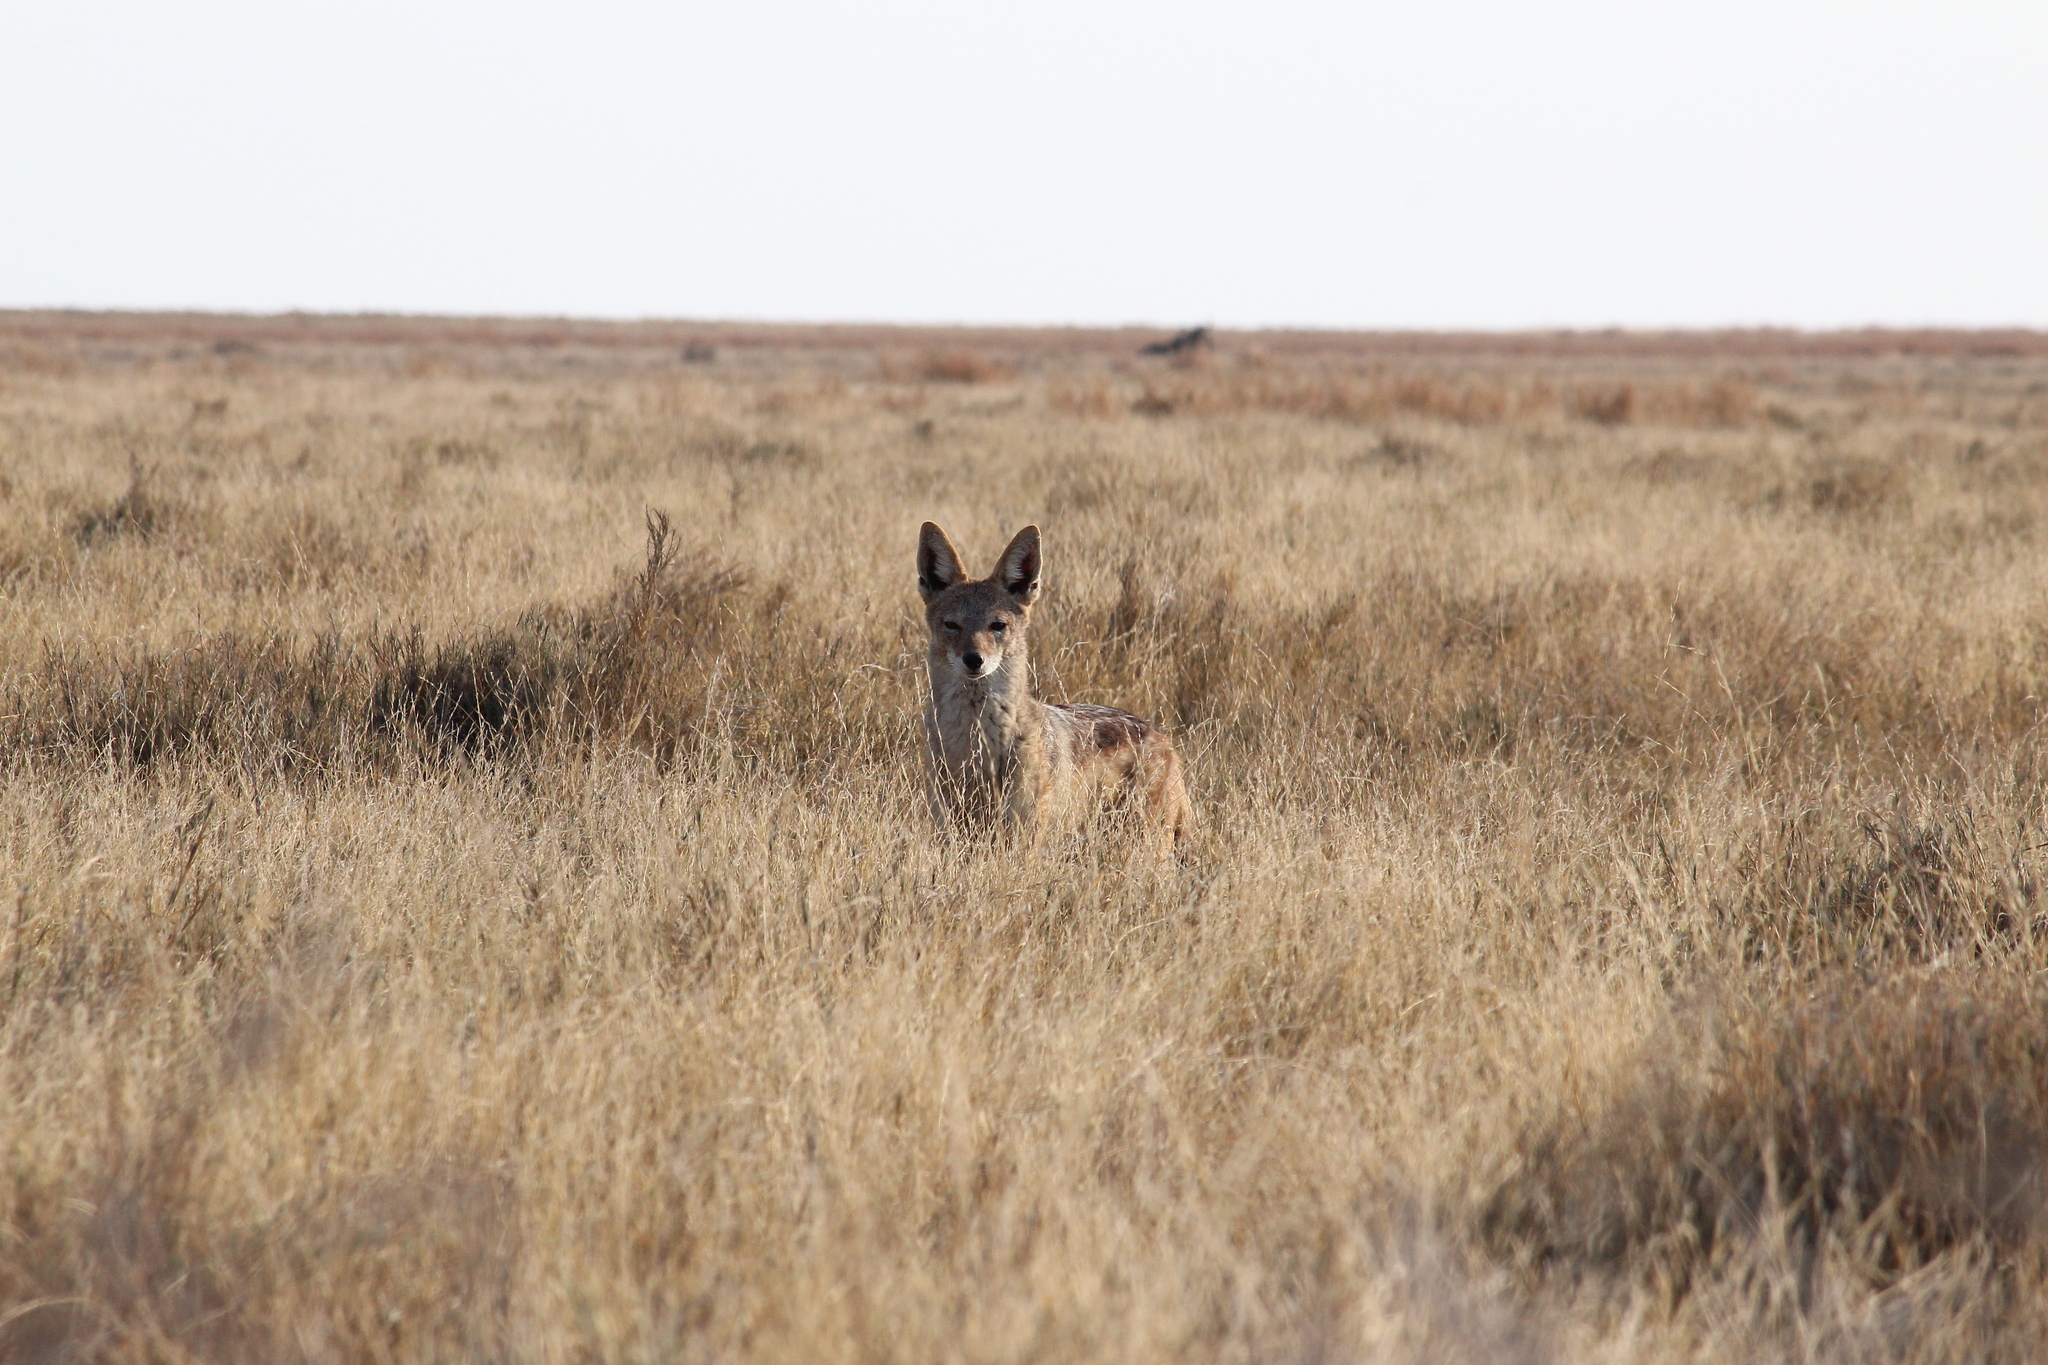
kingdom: Animalia
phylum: Chordata
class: Mammalia
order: Carnivora
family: Canidae
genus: Lupulella
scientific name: Lupulella
